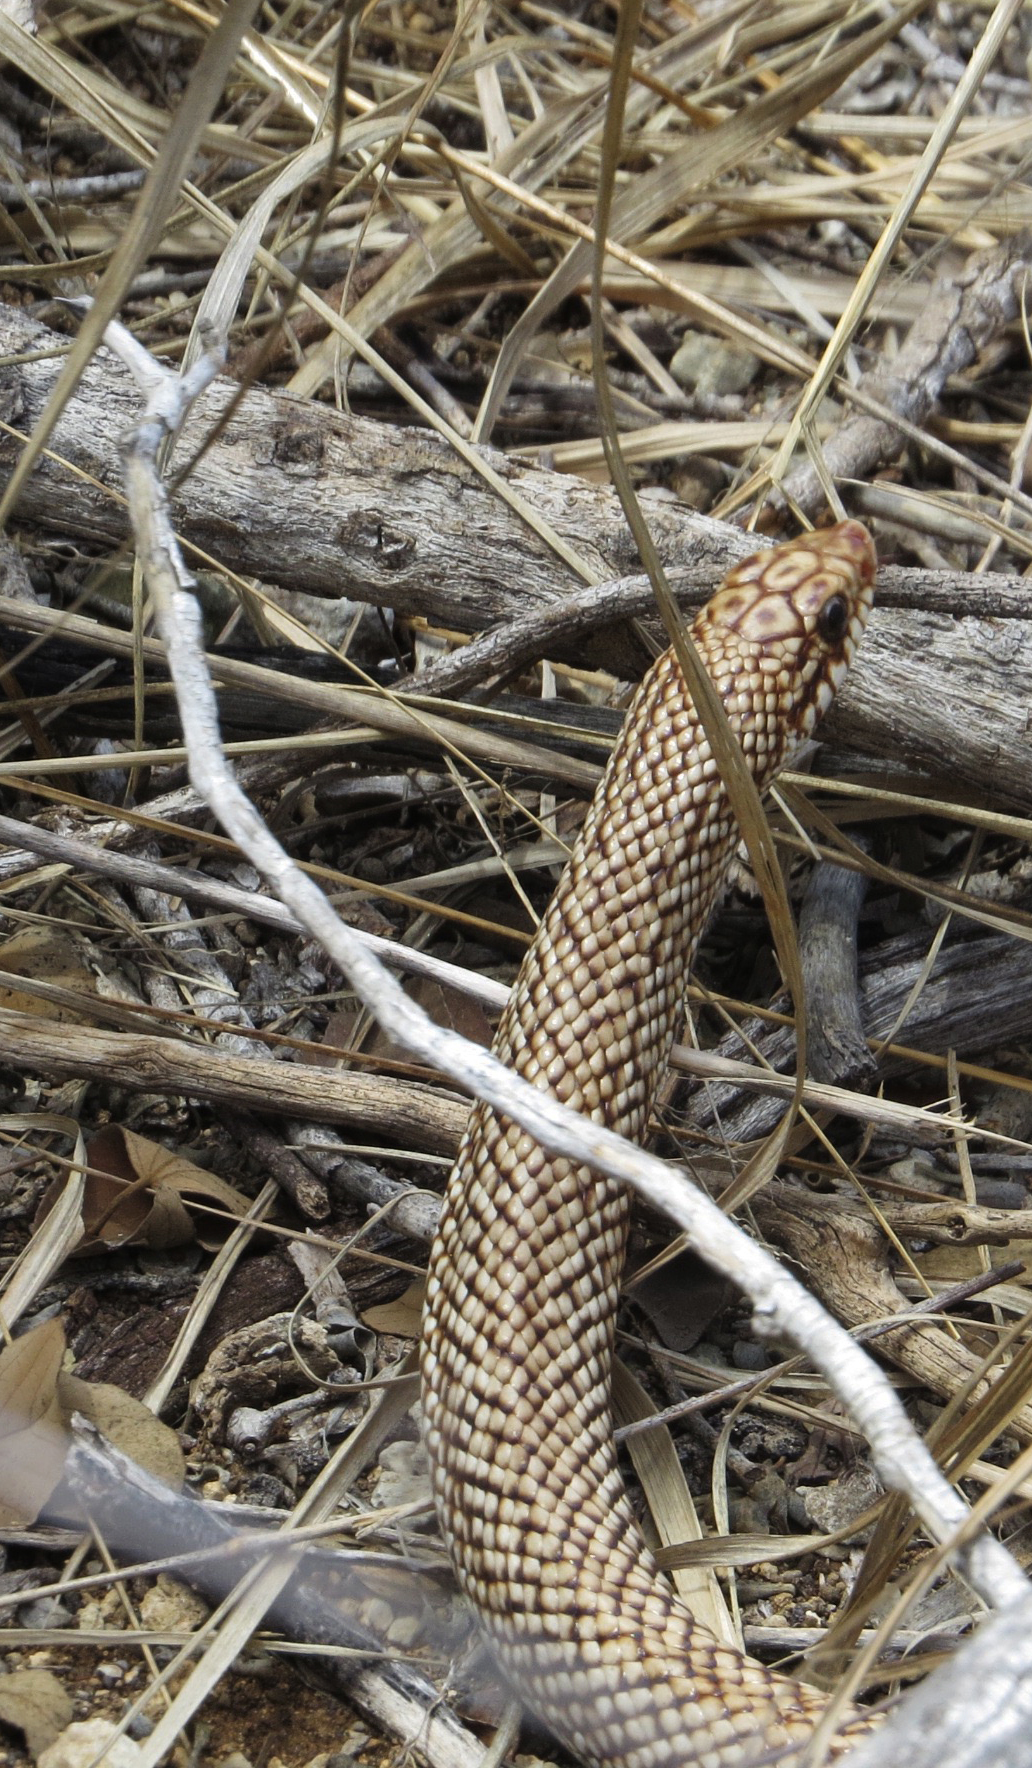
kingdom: Animalia
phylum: Chordata
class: Squamata
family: Pseudoxyrhophiidae
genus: Leioheterodon
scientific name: Leioheterodon geayi
